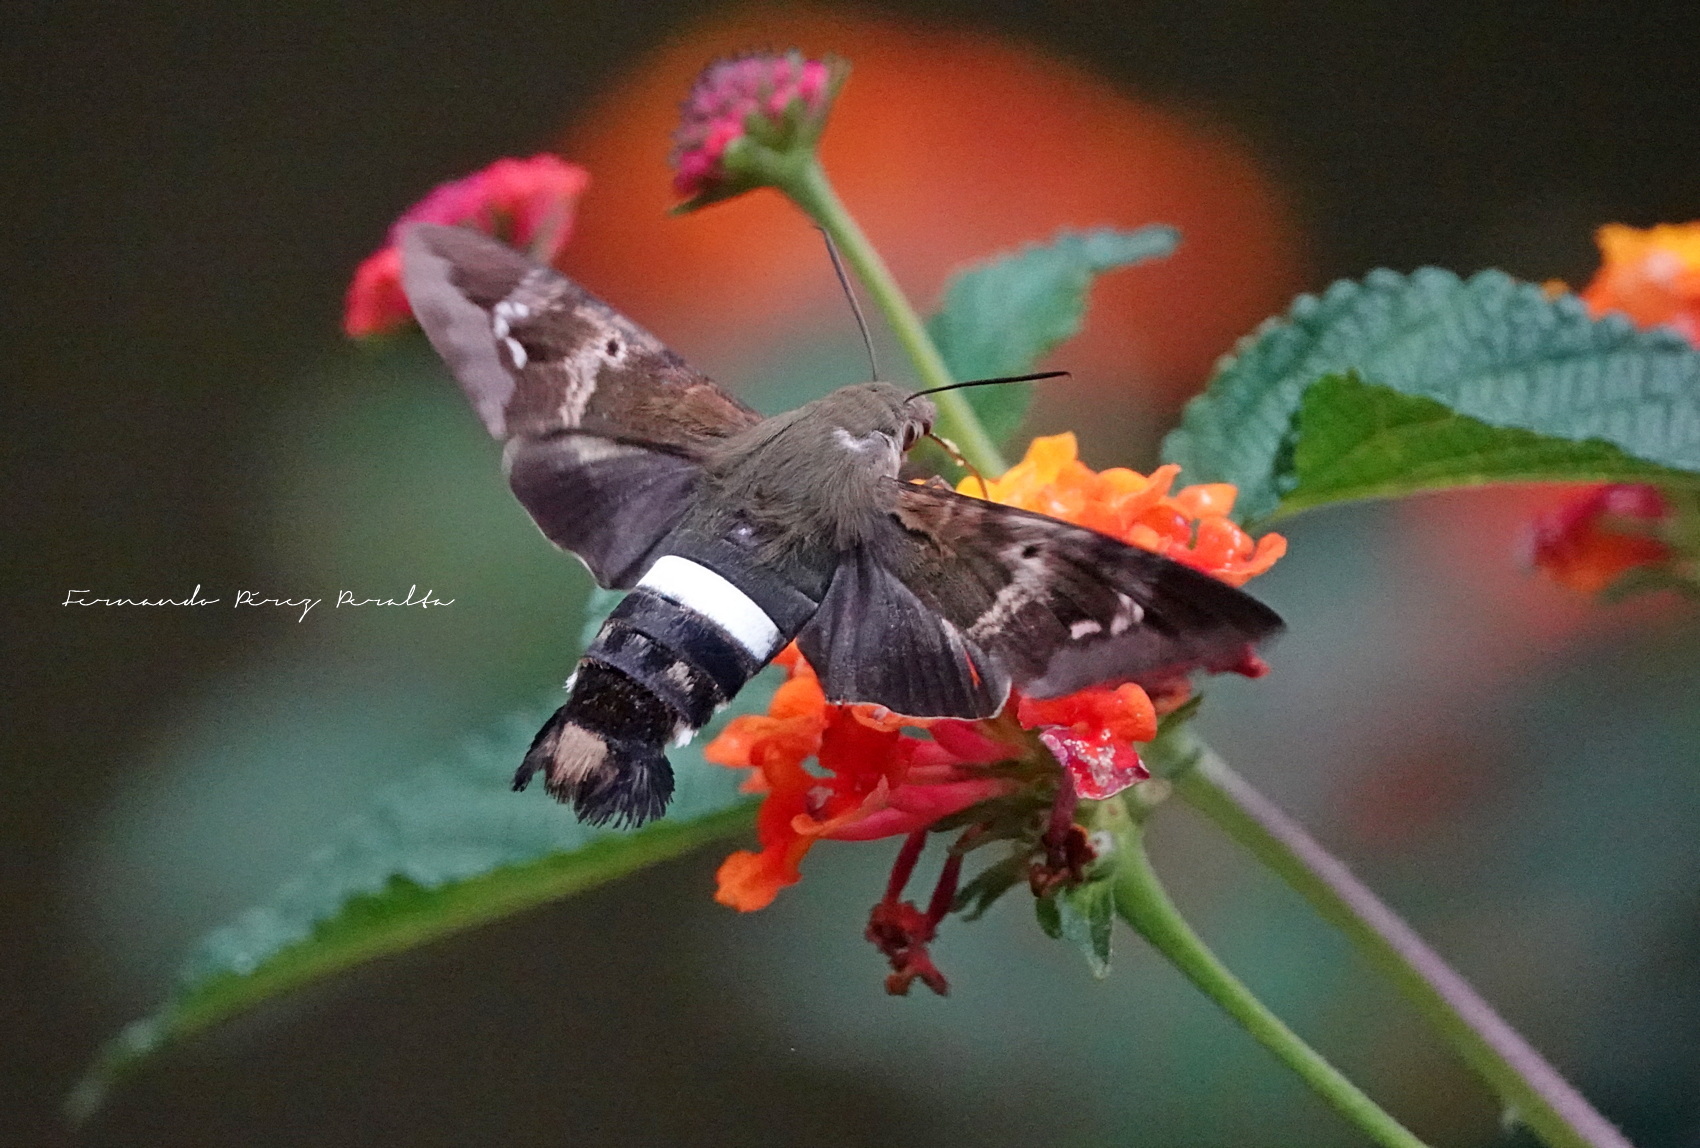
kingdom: Animalia
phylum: Arthropoda
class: Insecta
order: Lepidoptera
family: Sphingidae
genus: Aellopos
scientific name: Aellopos clavipes
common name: Clavipes sphinx
